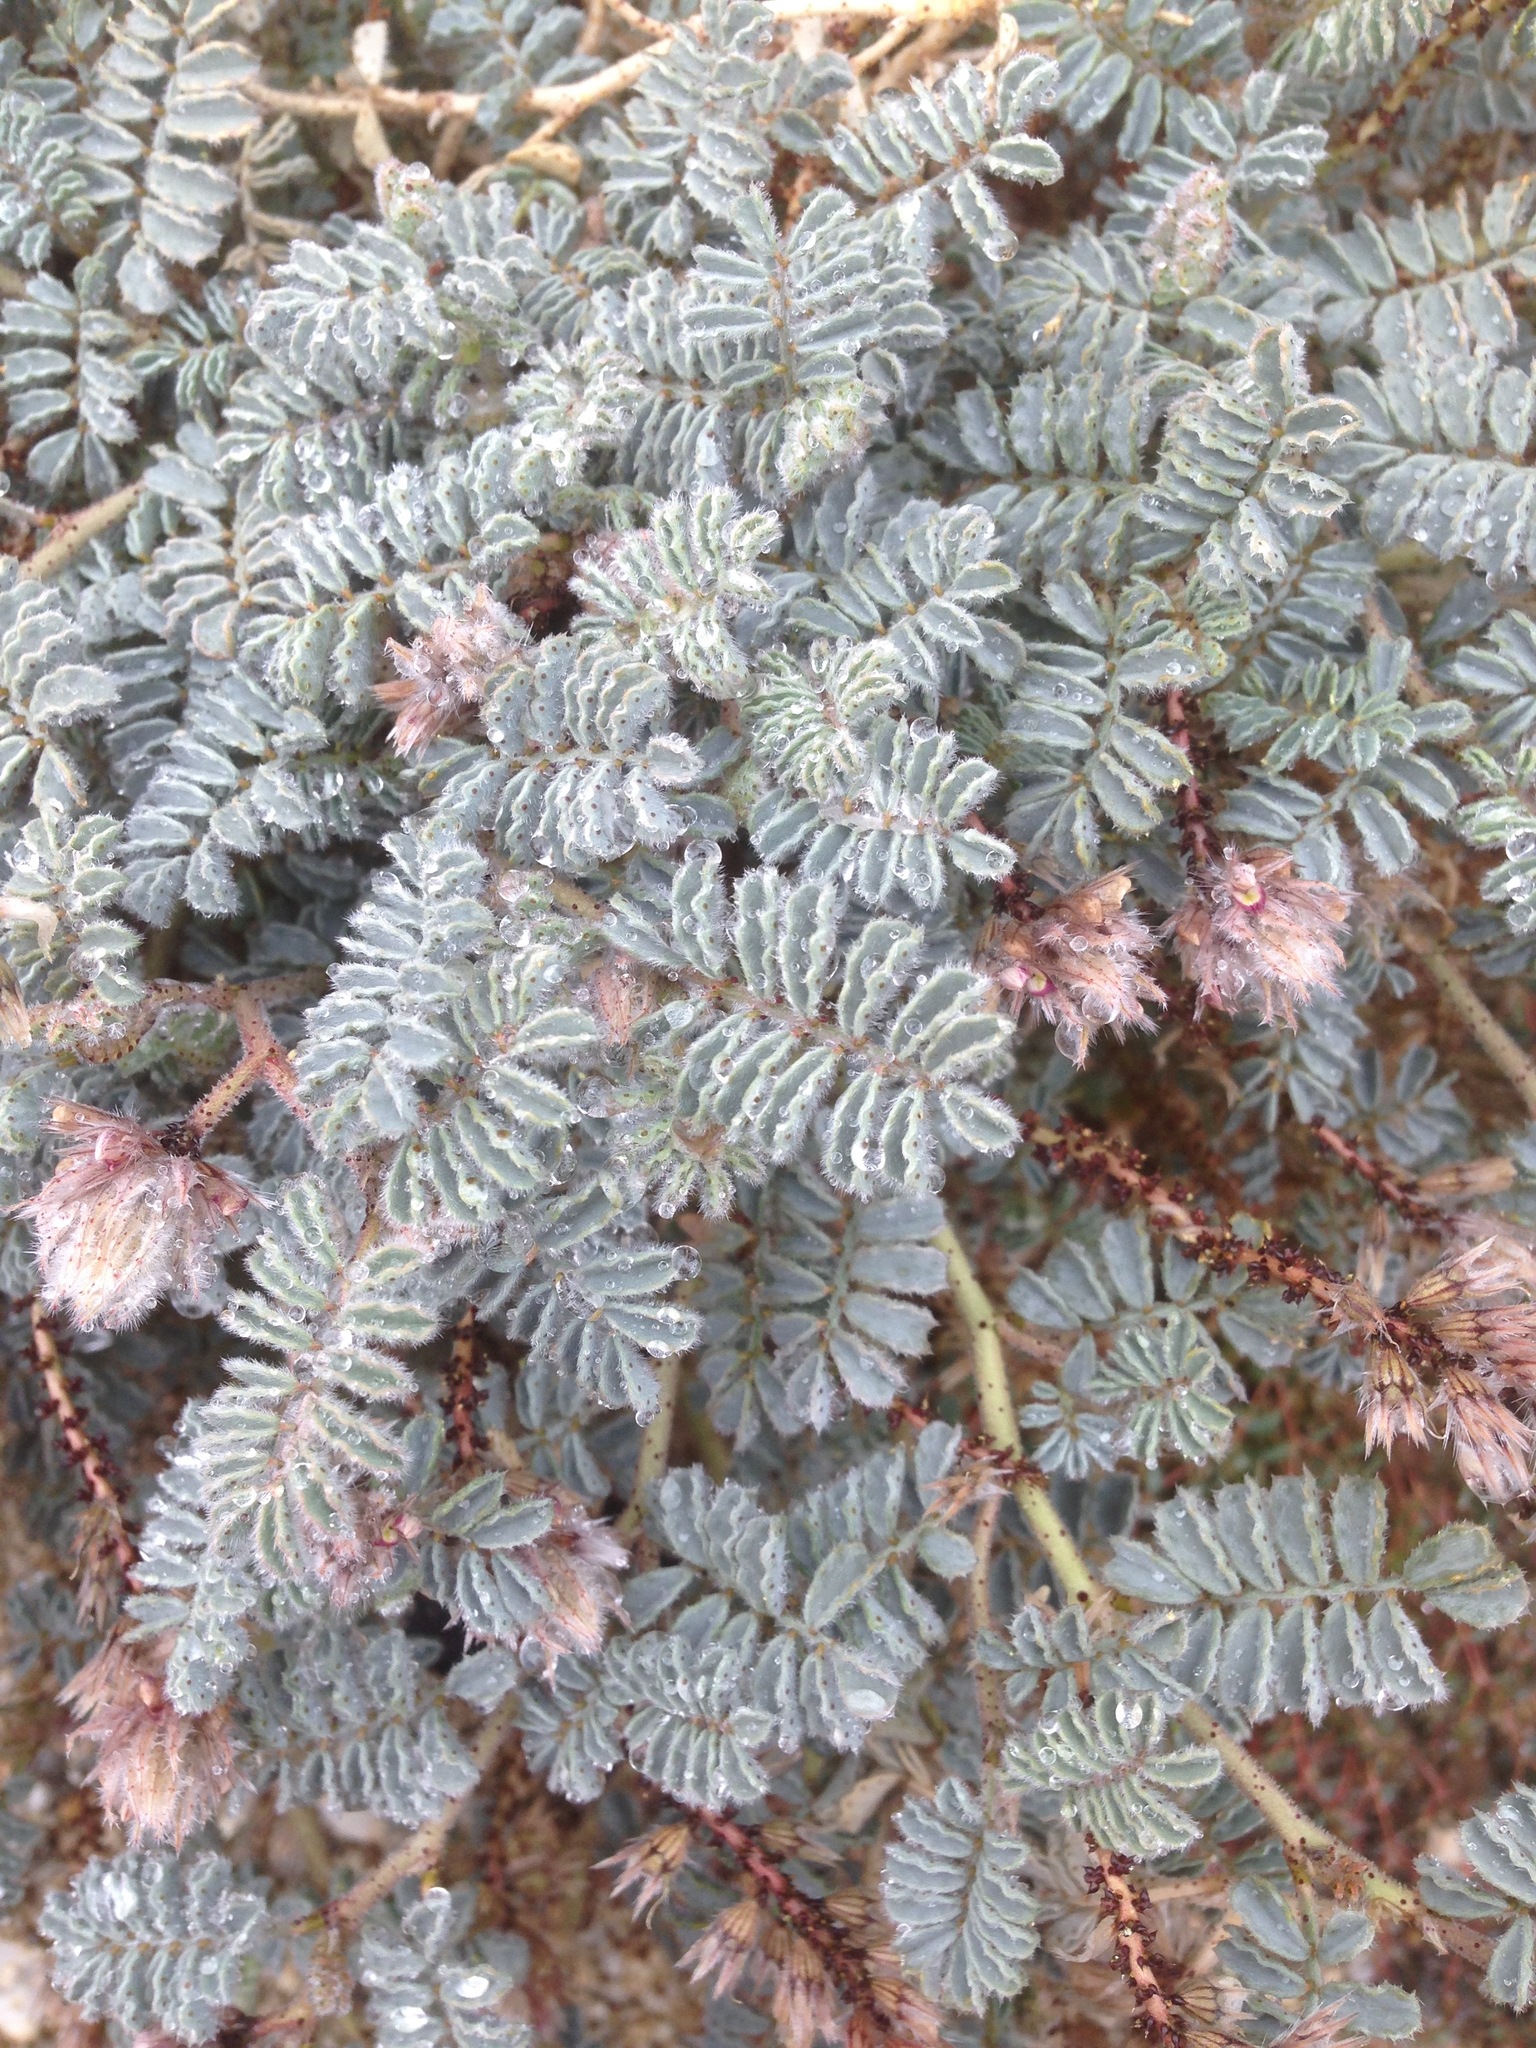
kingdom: Plantae
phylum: Tracheophyta
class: Magnoliopsida
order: Fabales
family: Fabaceae
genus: Dalea
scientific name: Dalea mollissima
